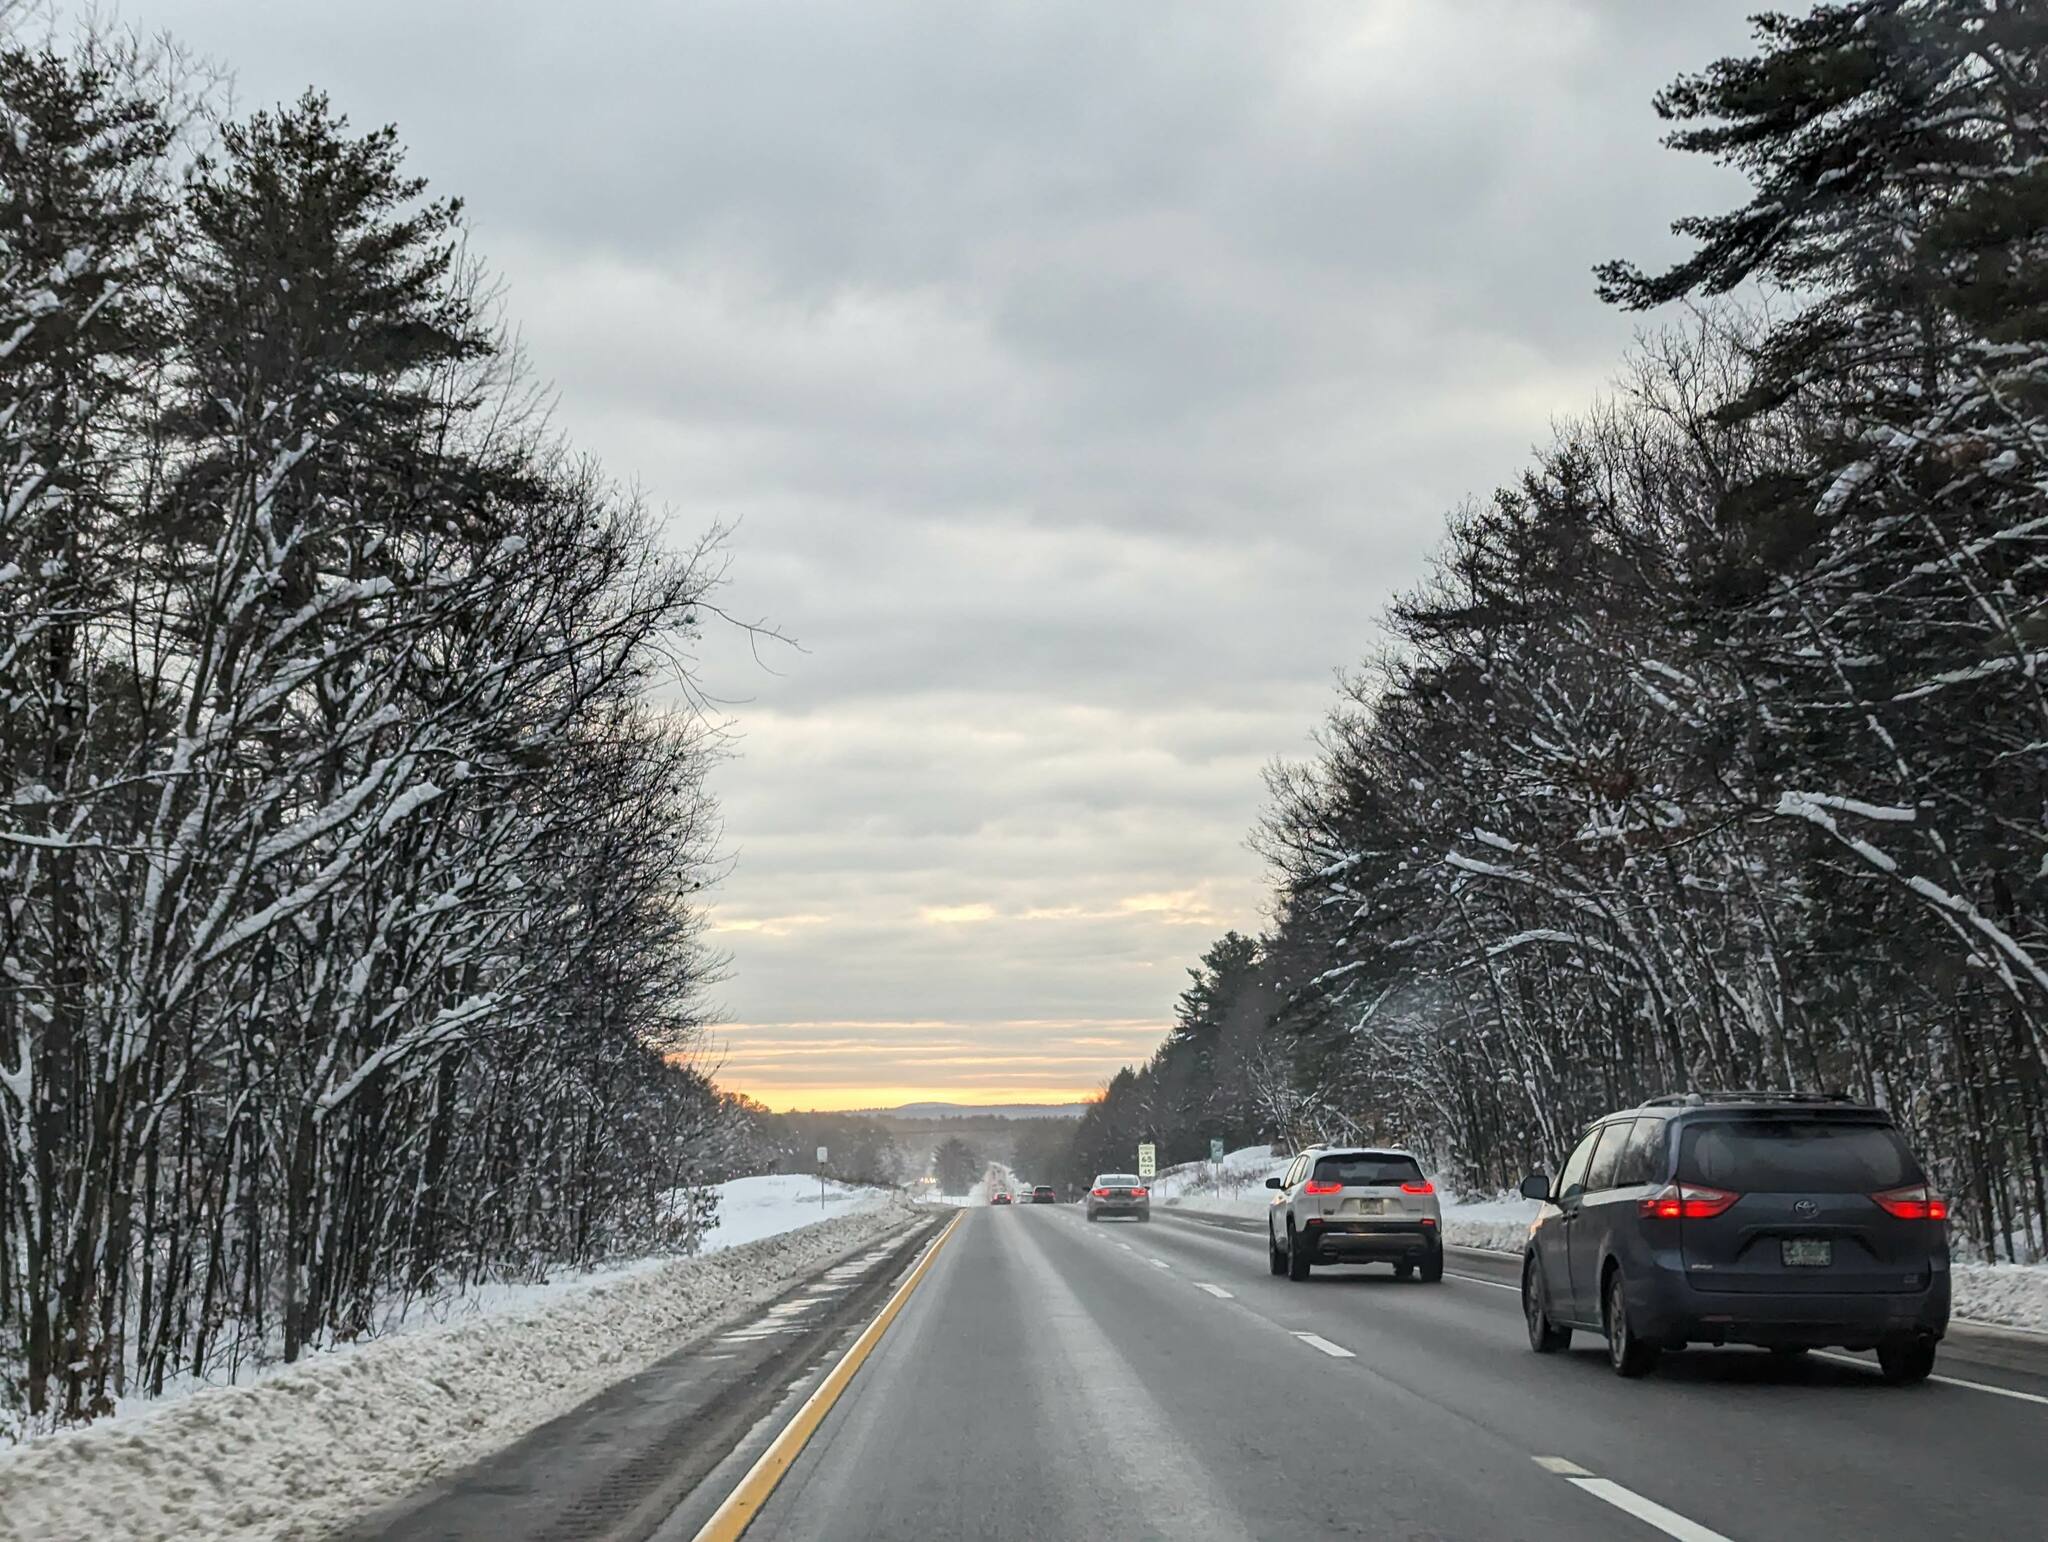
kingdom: Plantae
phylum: Tracheophyta
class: Pinopsida
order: Pinales
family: Pinaceae
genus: Pinus
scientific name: Pinus strobus
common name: Weymouth pine
